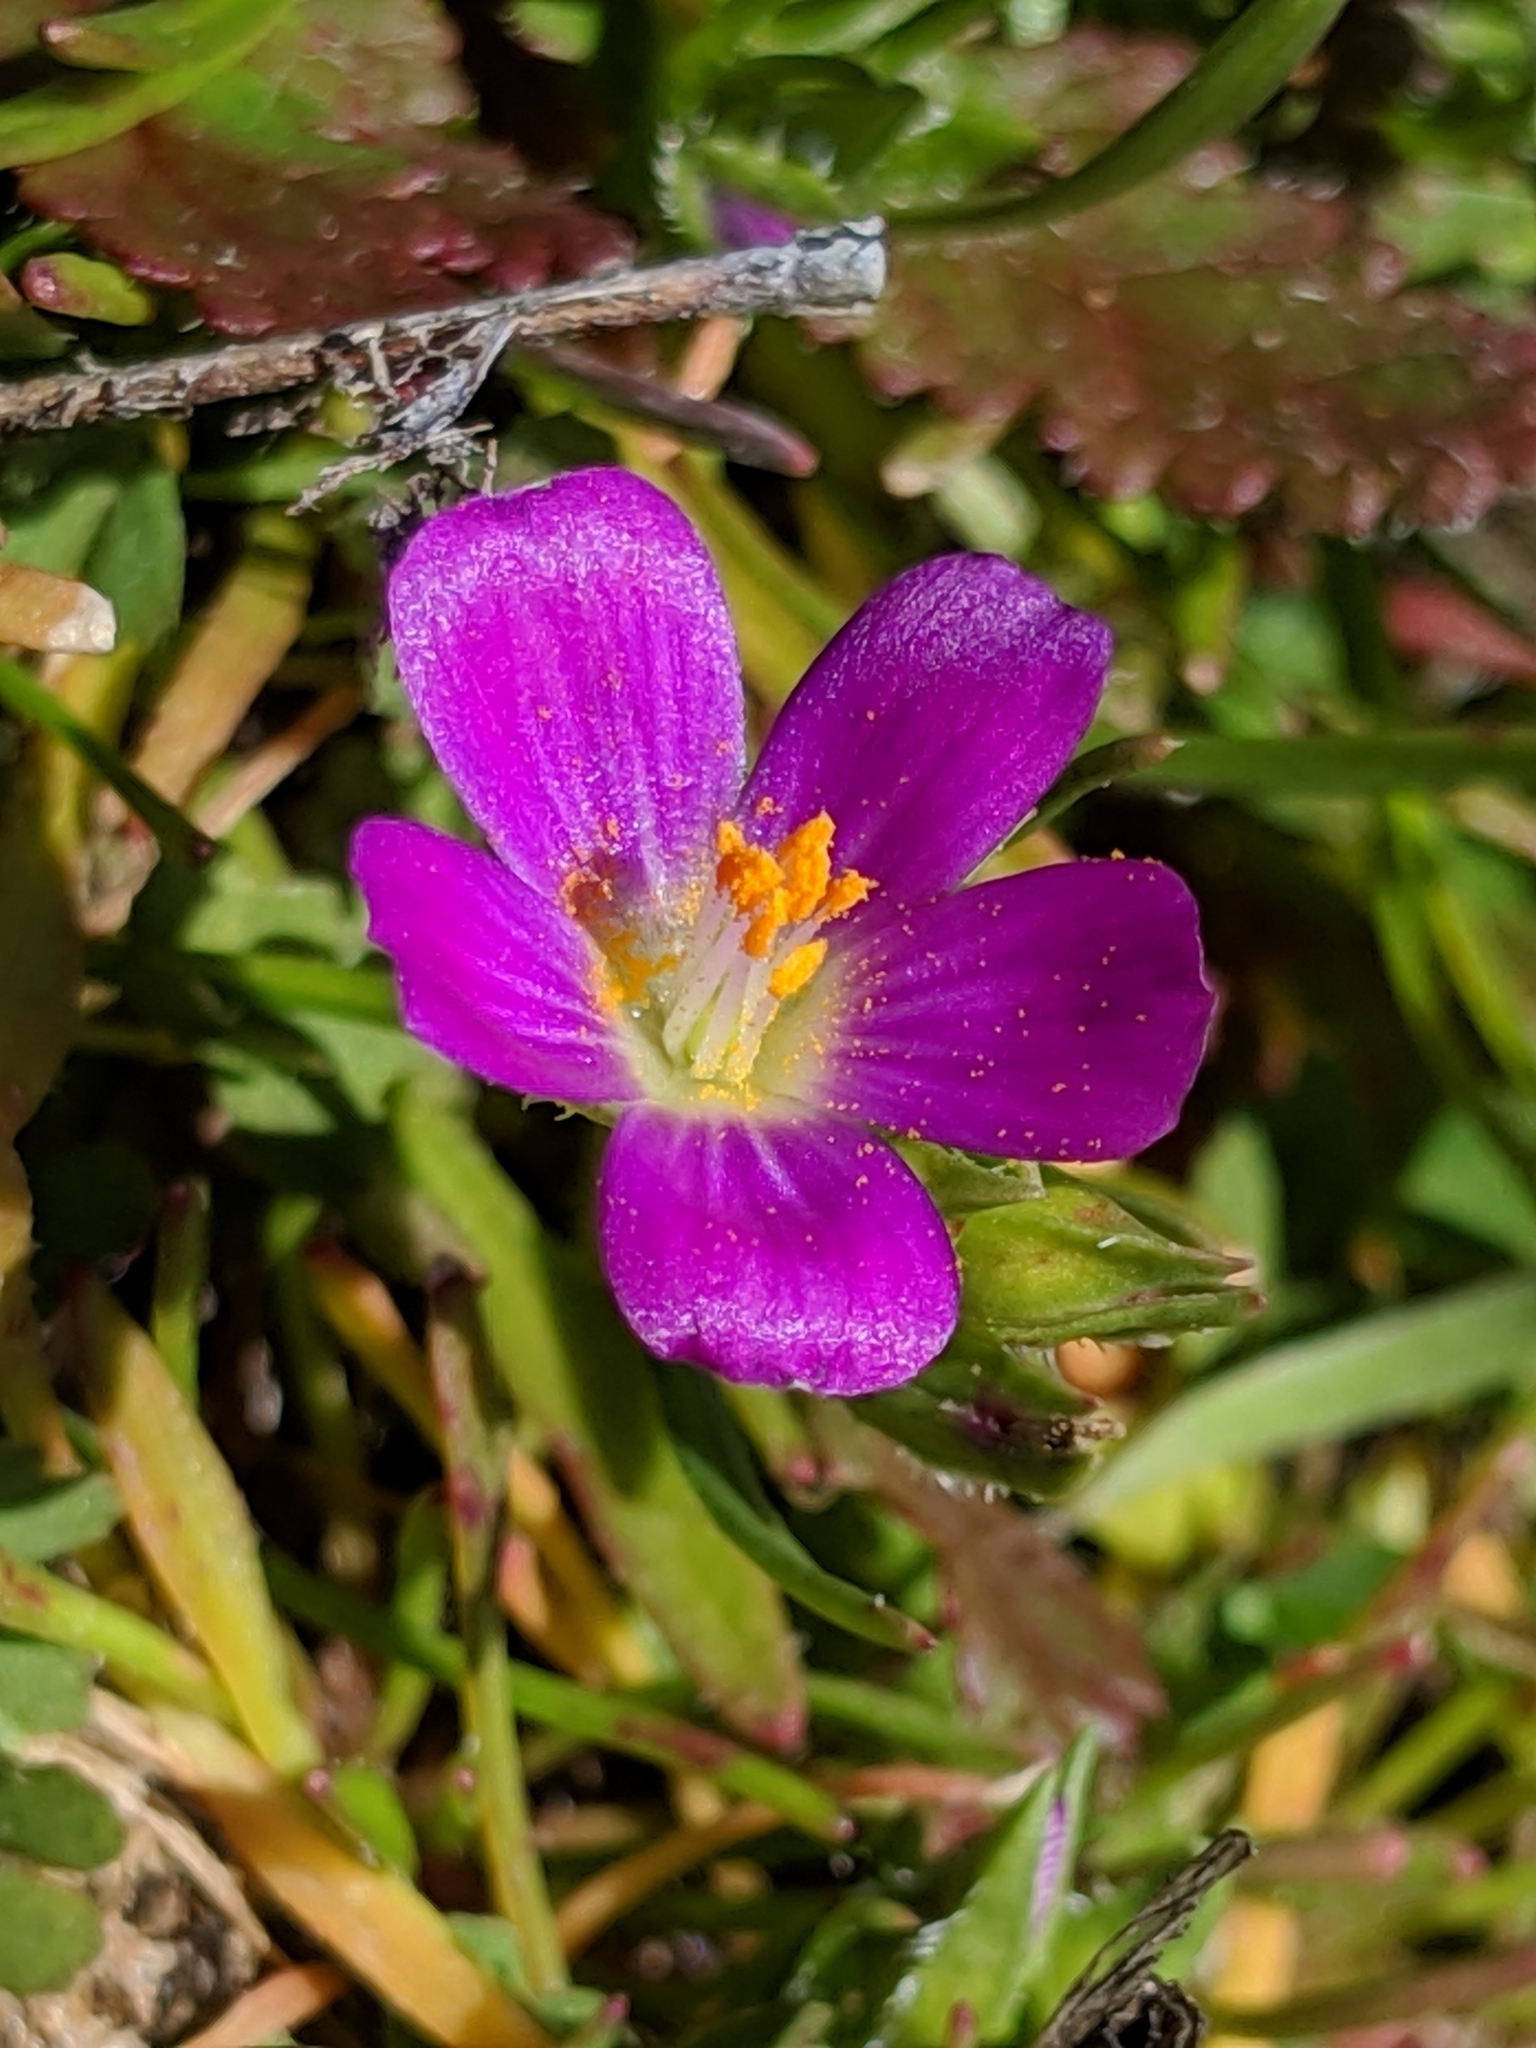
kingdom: Plantae
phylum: Tracheophyta
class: Magnoliopsida
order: Caryophyllales
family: Montiaceae
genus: Calandrinia
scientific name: Calandrinia menziesii
